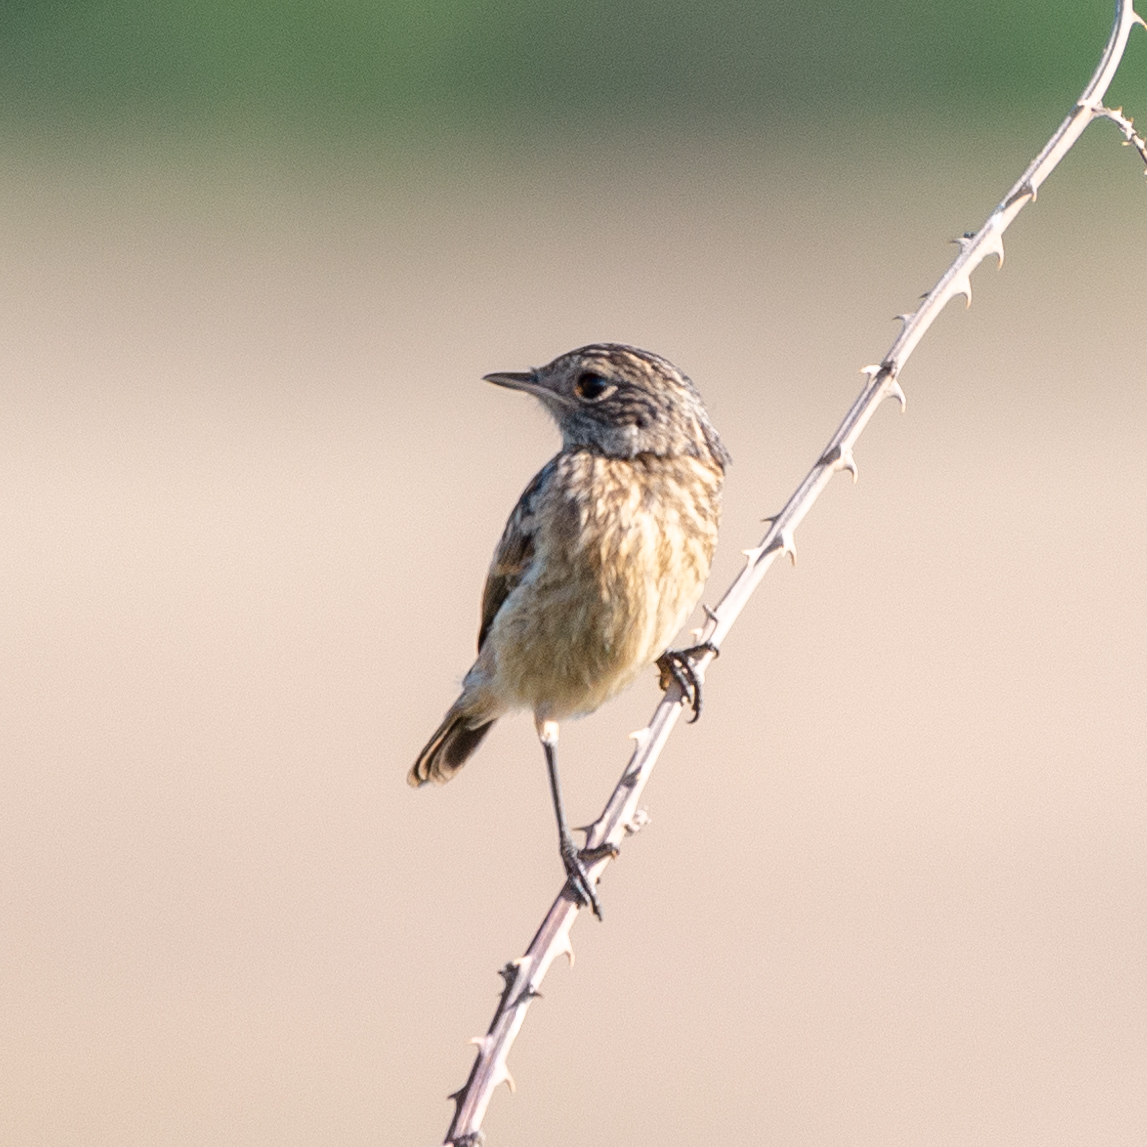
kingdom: Animalia
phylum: Chordata
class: Aves
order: Passeriformes
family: Muscicapidae
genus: Saxicola
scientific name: Saxicola rubicola
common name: European stonechat
